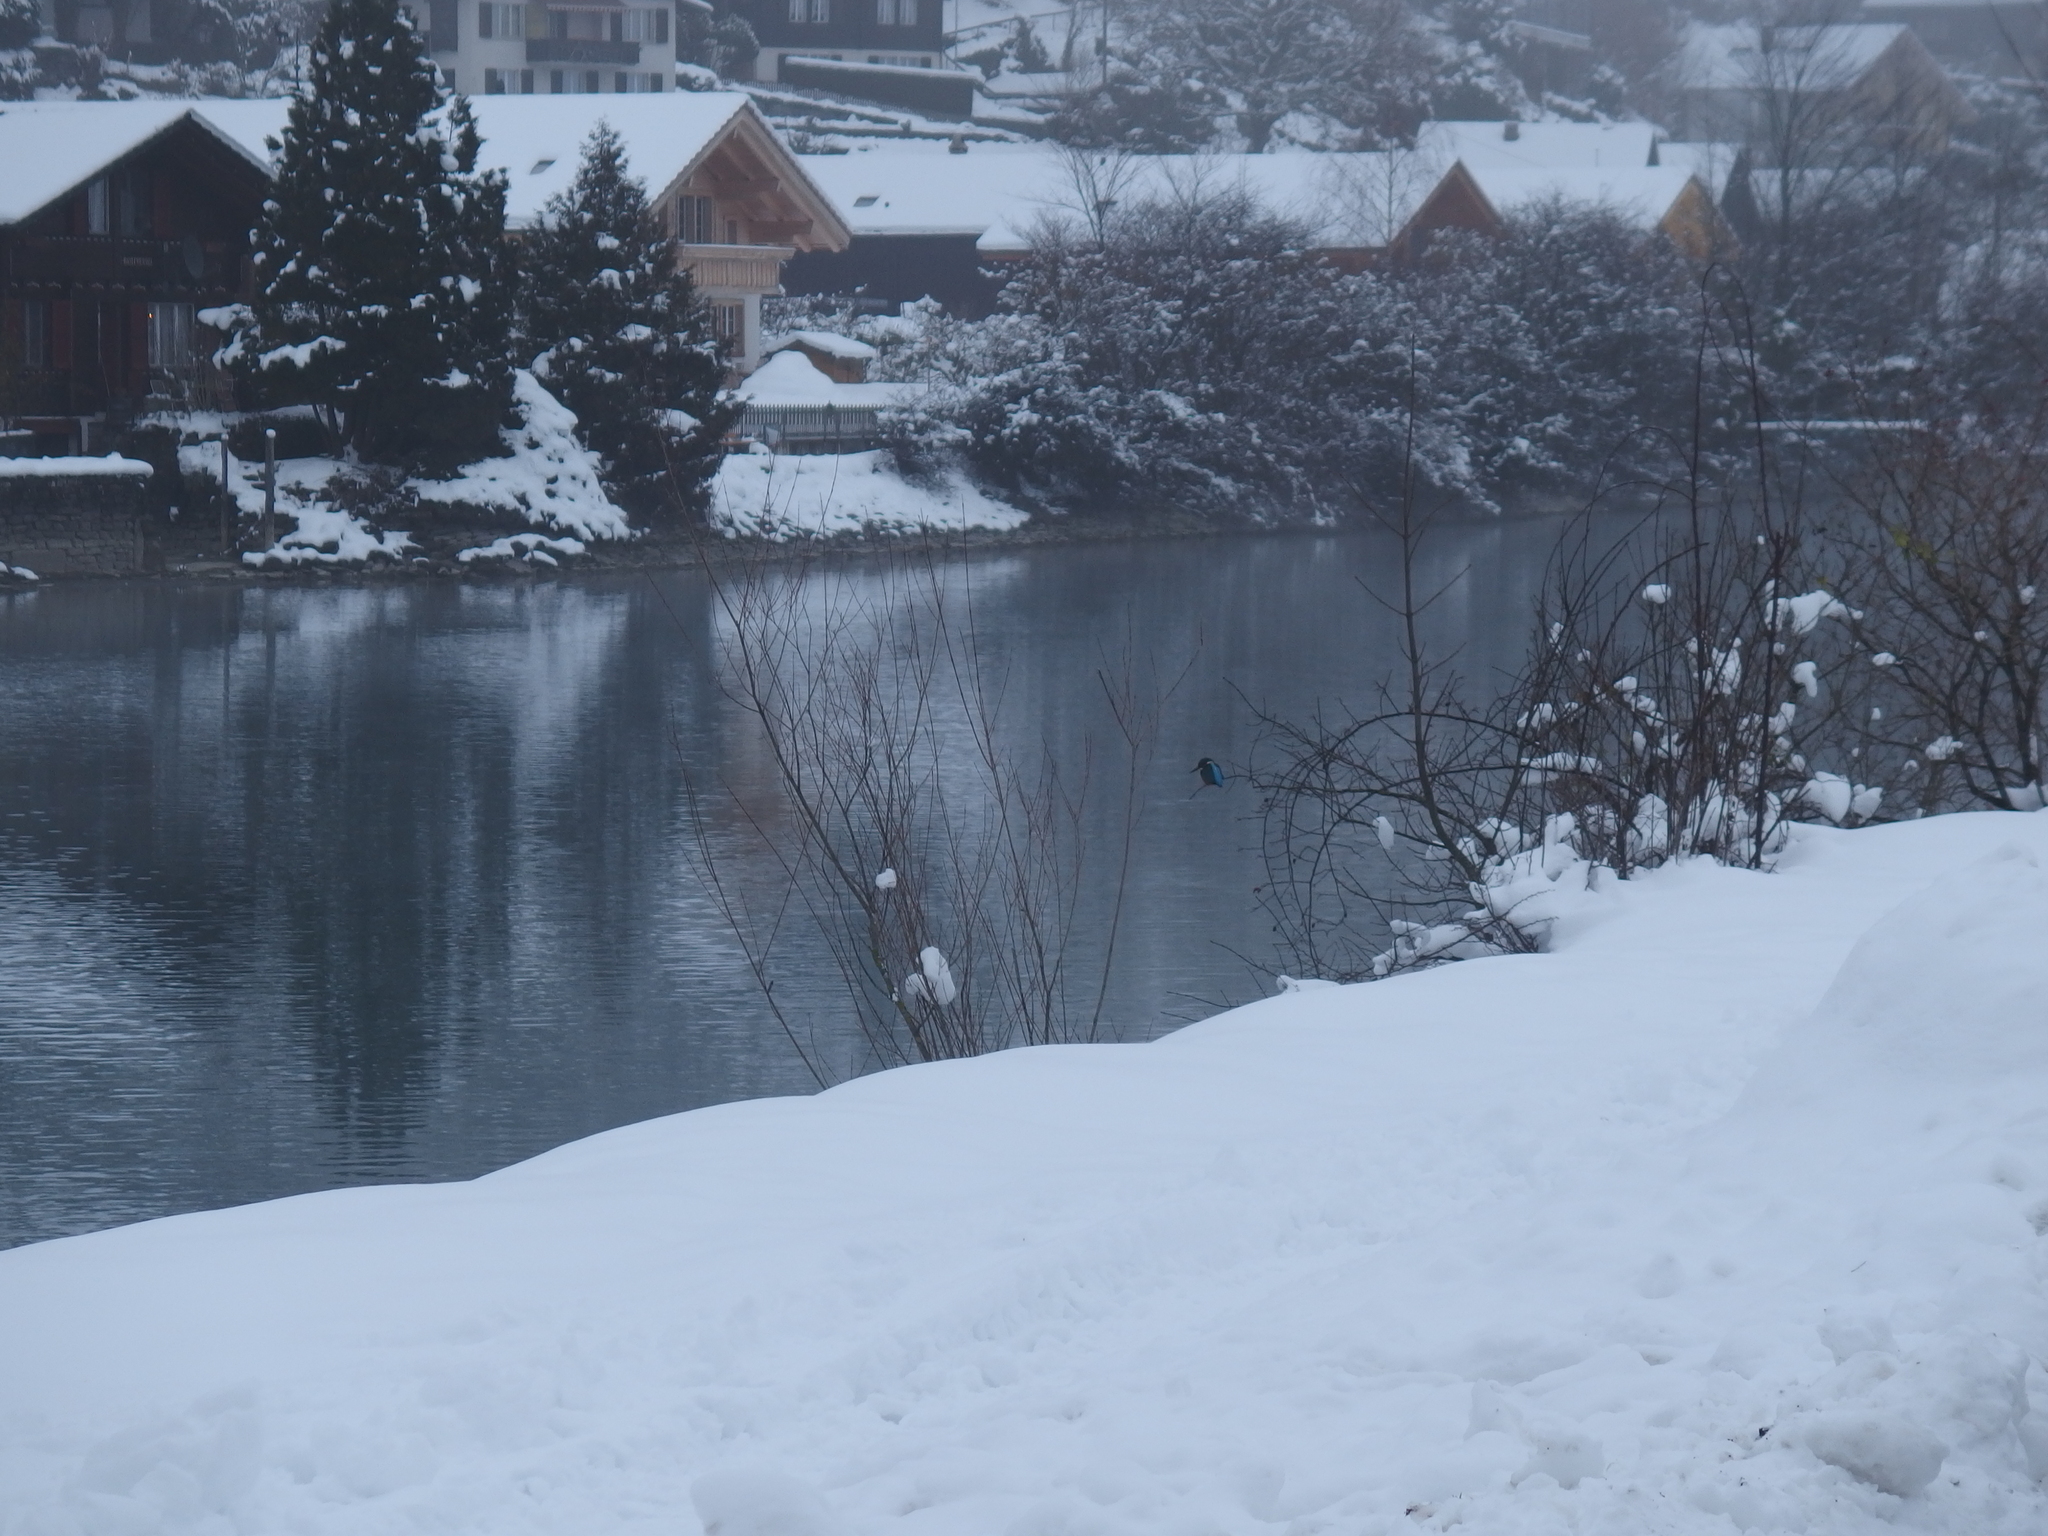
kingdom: Animalia
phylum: Chordata
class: Aves
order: Coraciiformes
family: Alcedinidae
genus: Alcedo
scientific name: Alcedo atthis
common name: Common kingfisher
